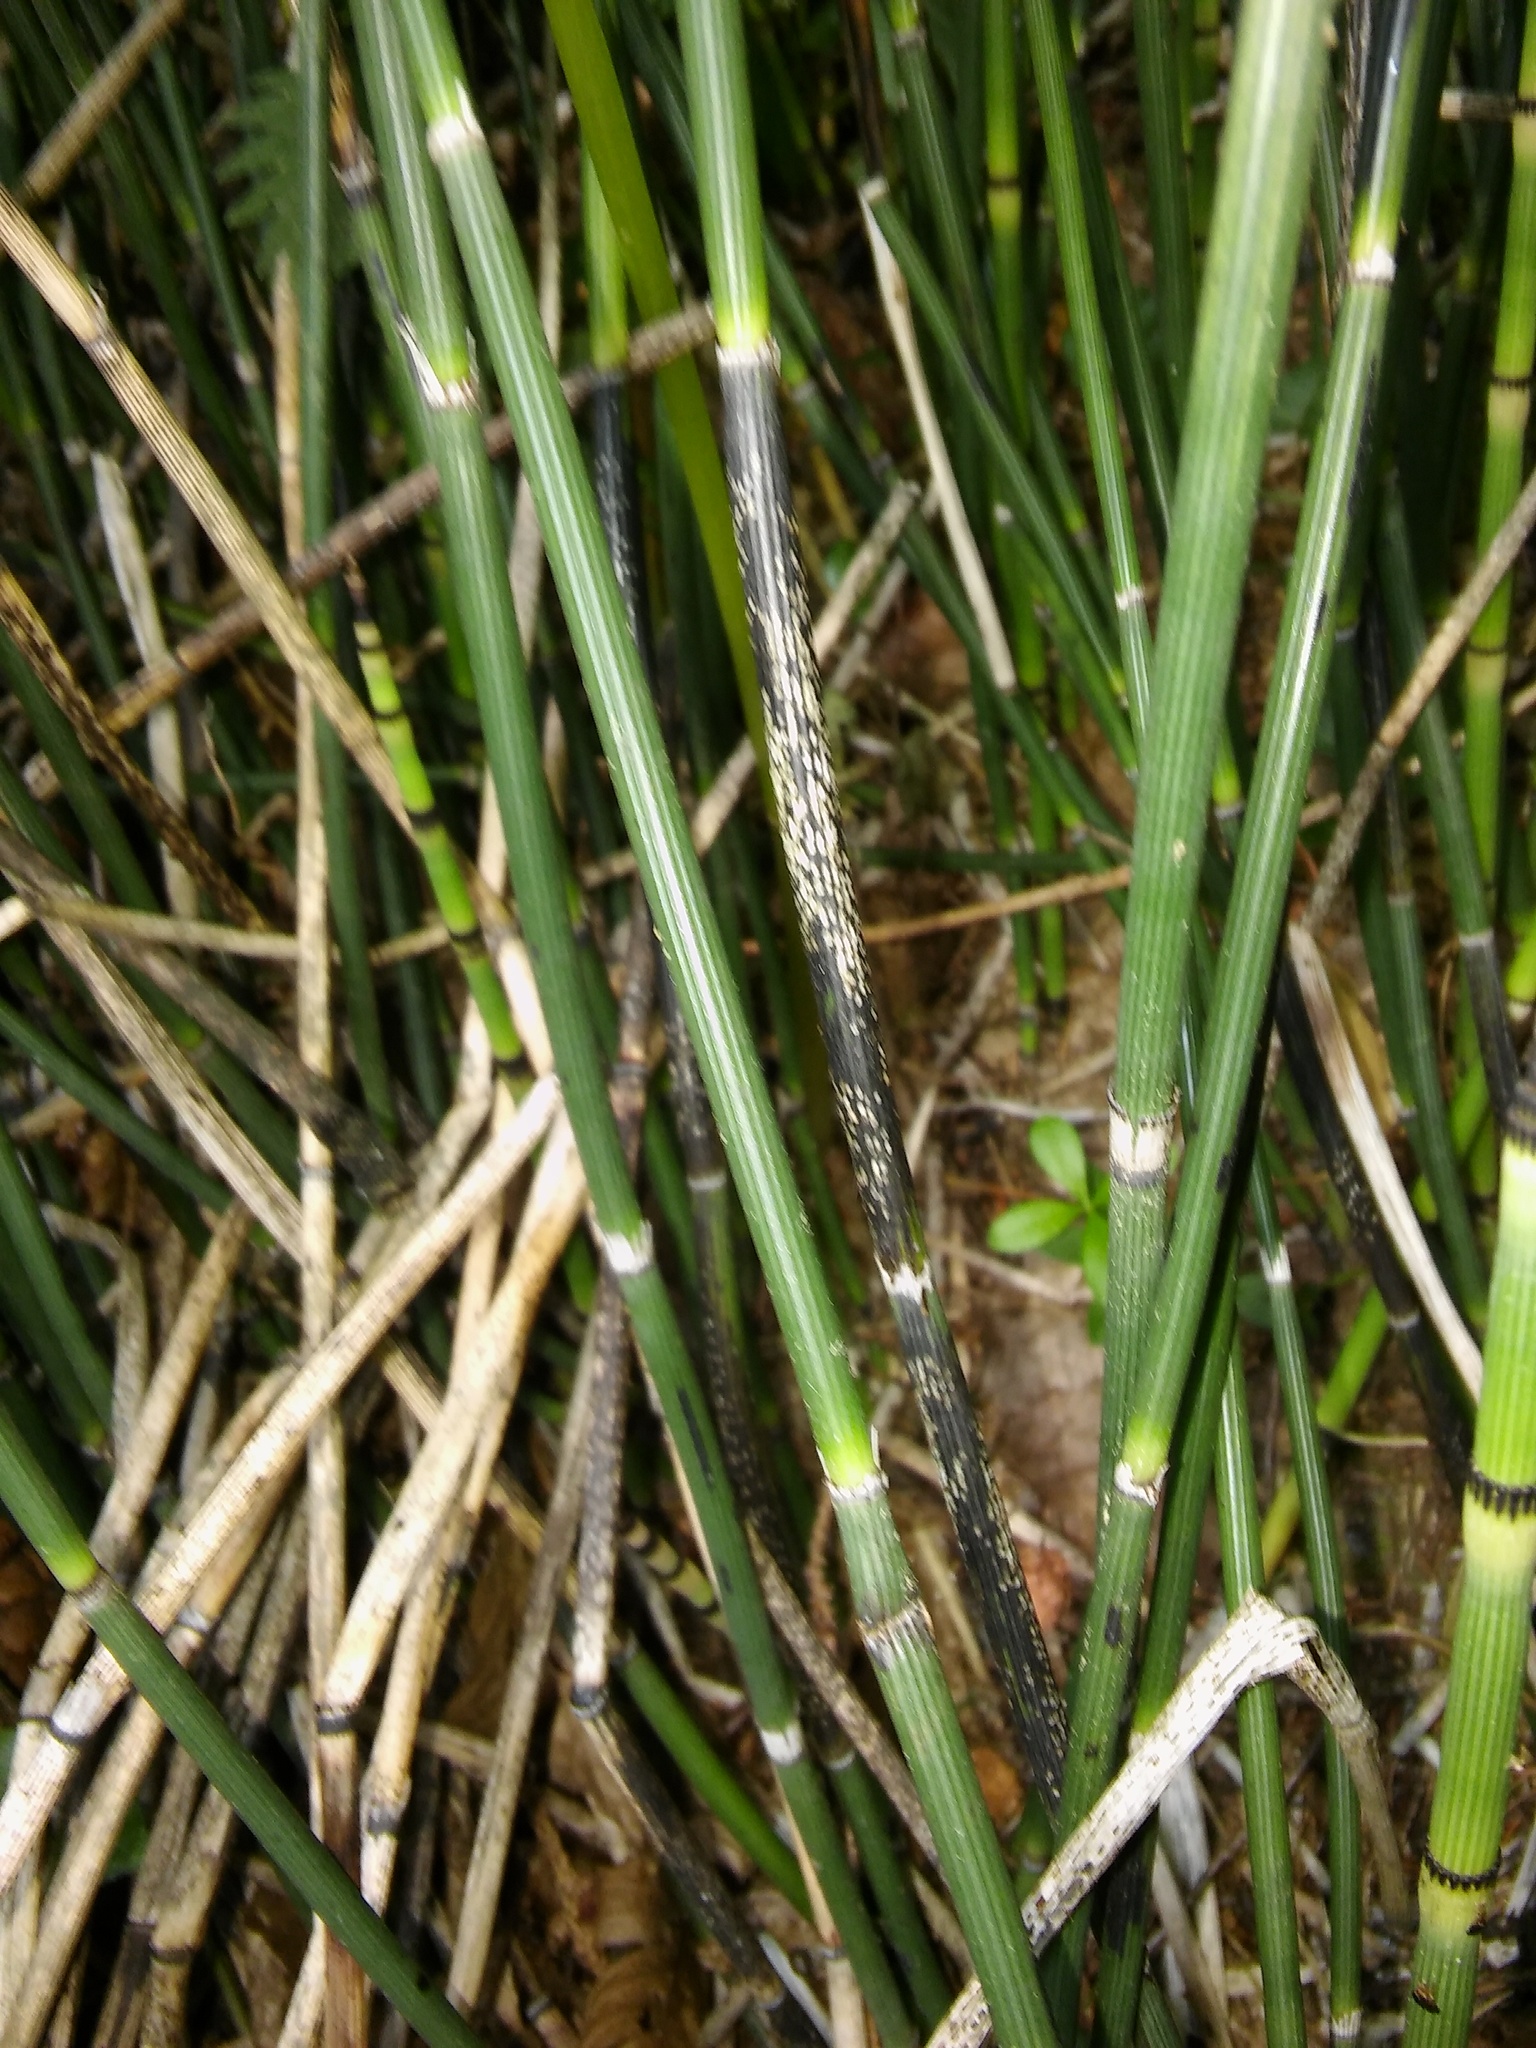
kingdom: Fungi
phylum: Ascomycota
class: Leotiomycetes
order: Helotiales
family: Helotiaceae
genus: Stamnaria
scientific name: Stamnaria americana
